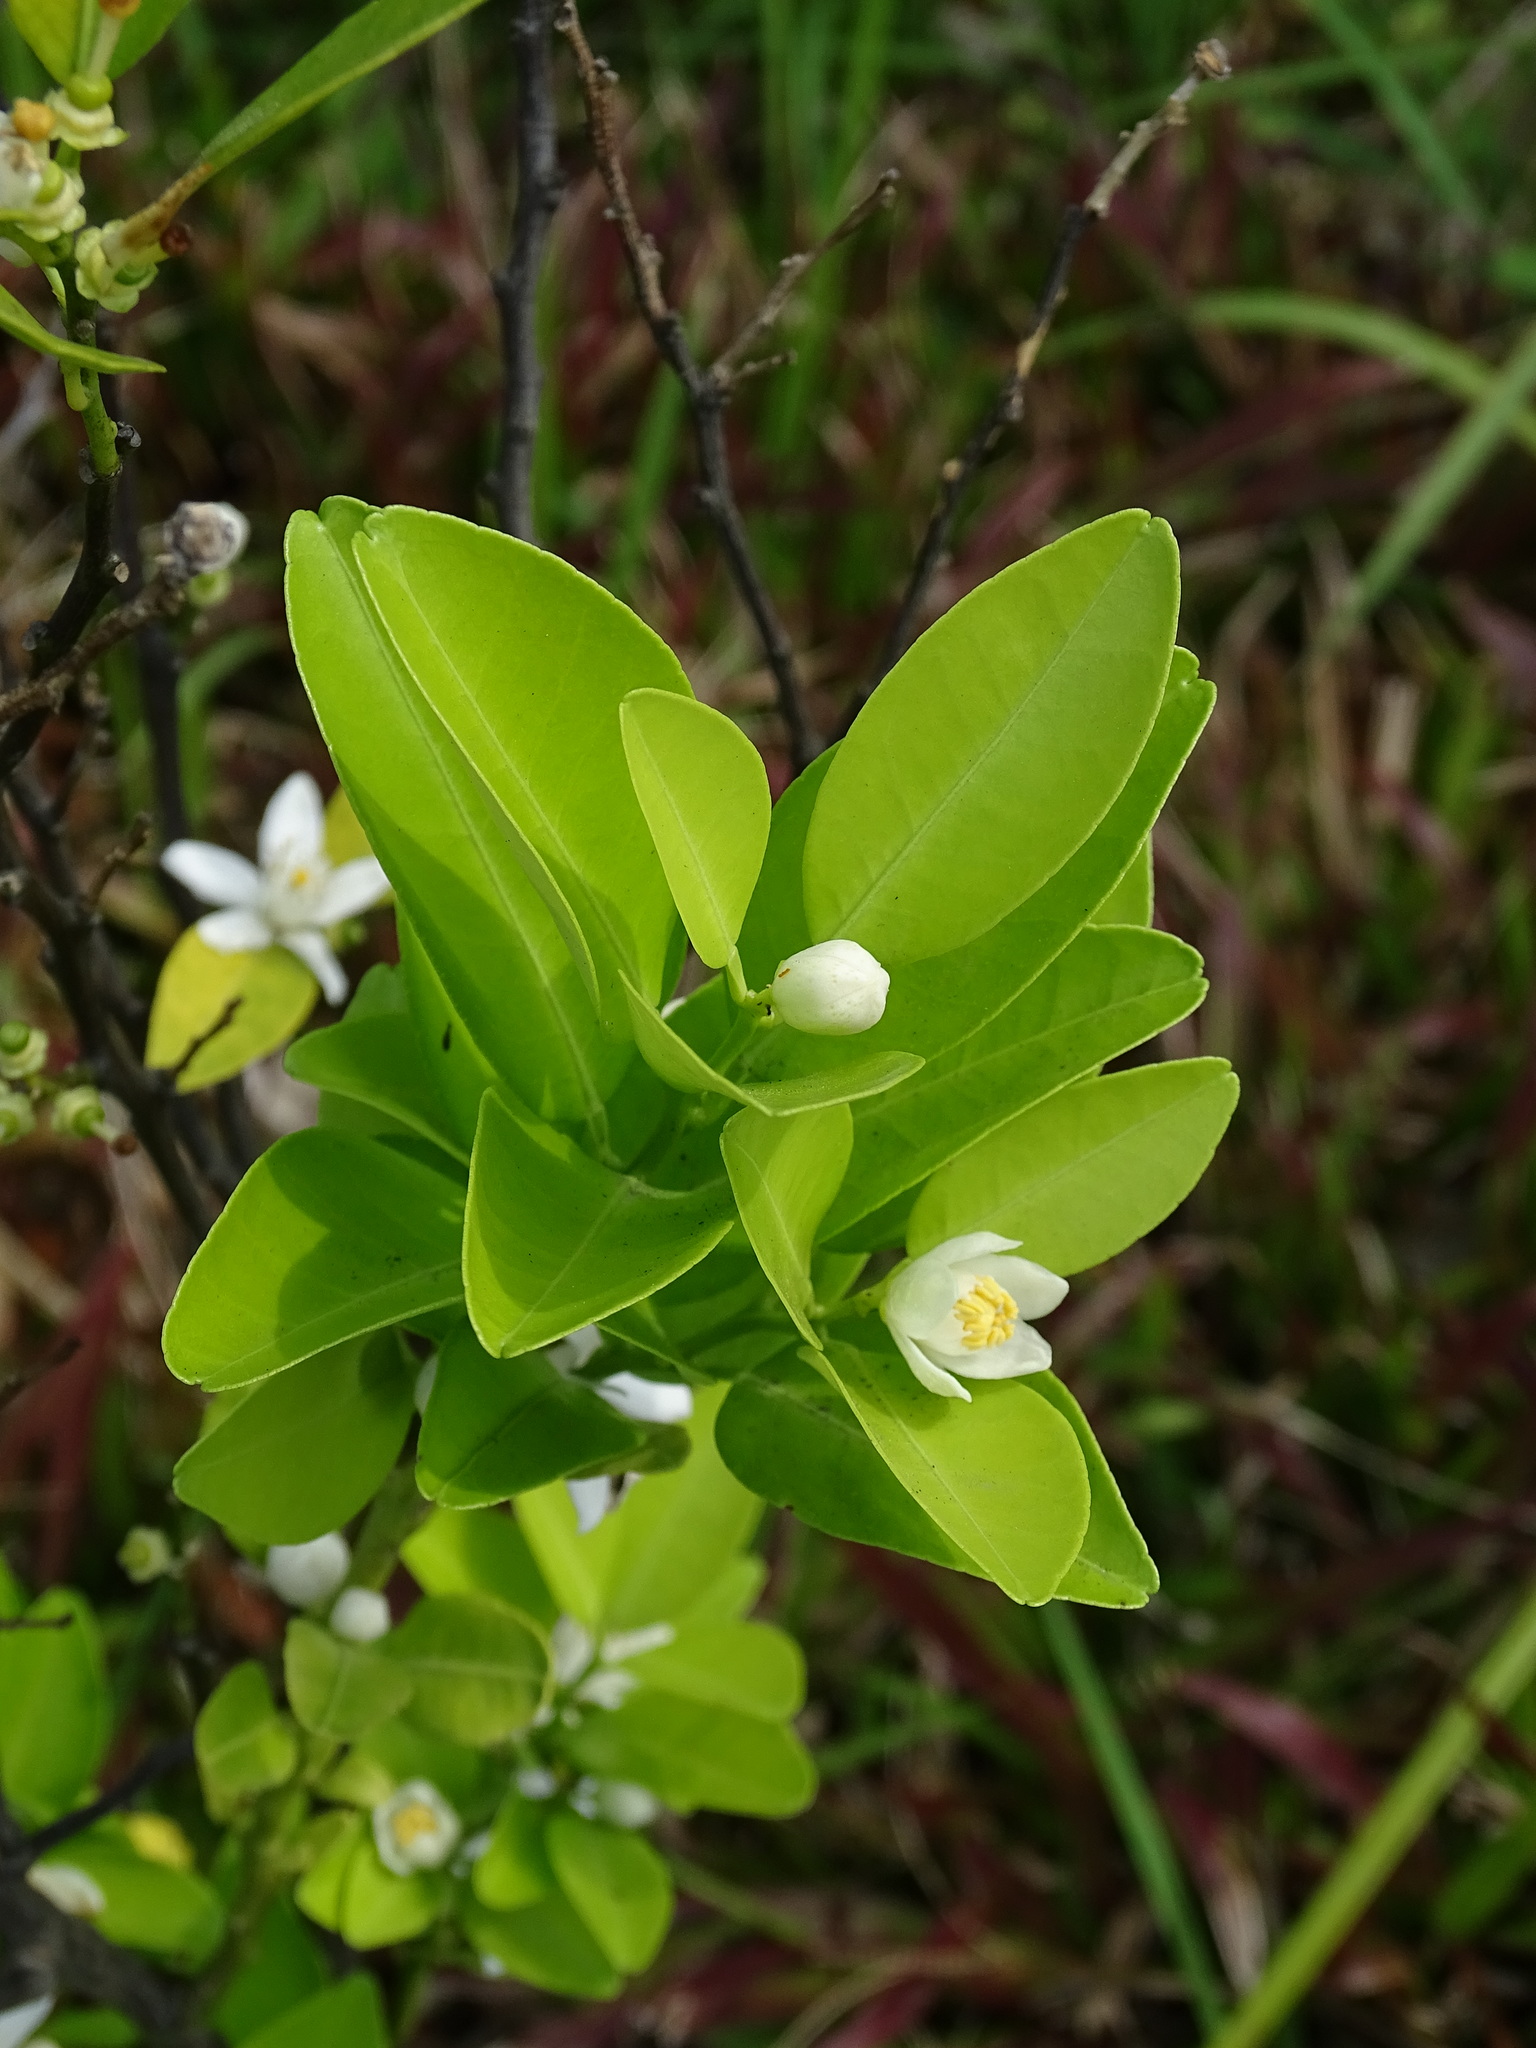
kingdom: Plantae
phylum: Tracheophyta
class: Magnoliopsida
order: Sapindales
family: Rutaceae
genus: Citrus
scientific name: Citrus
